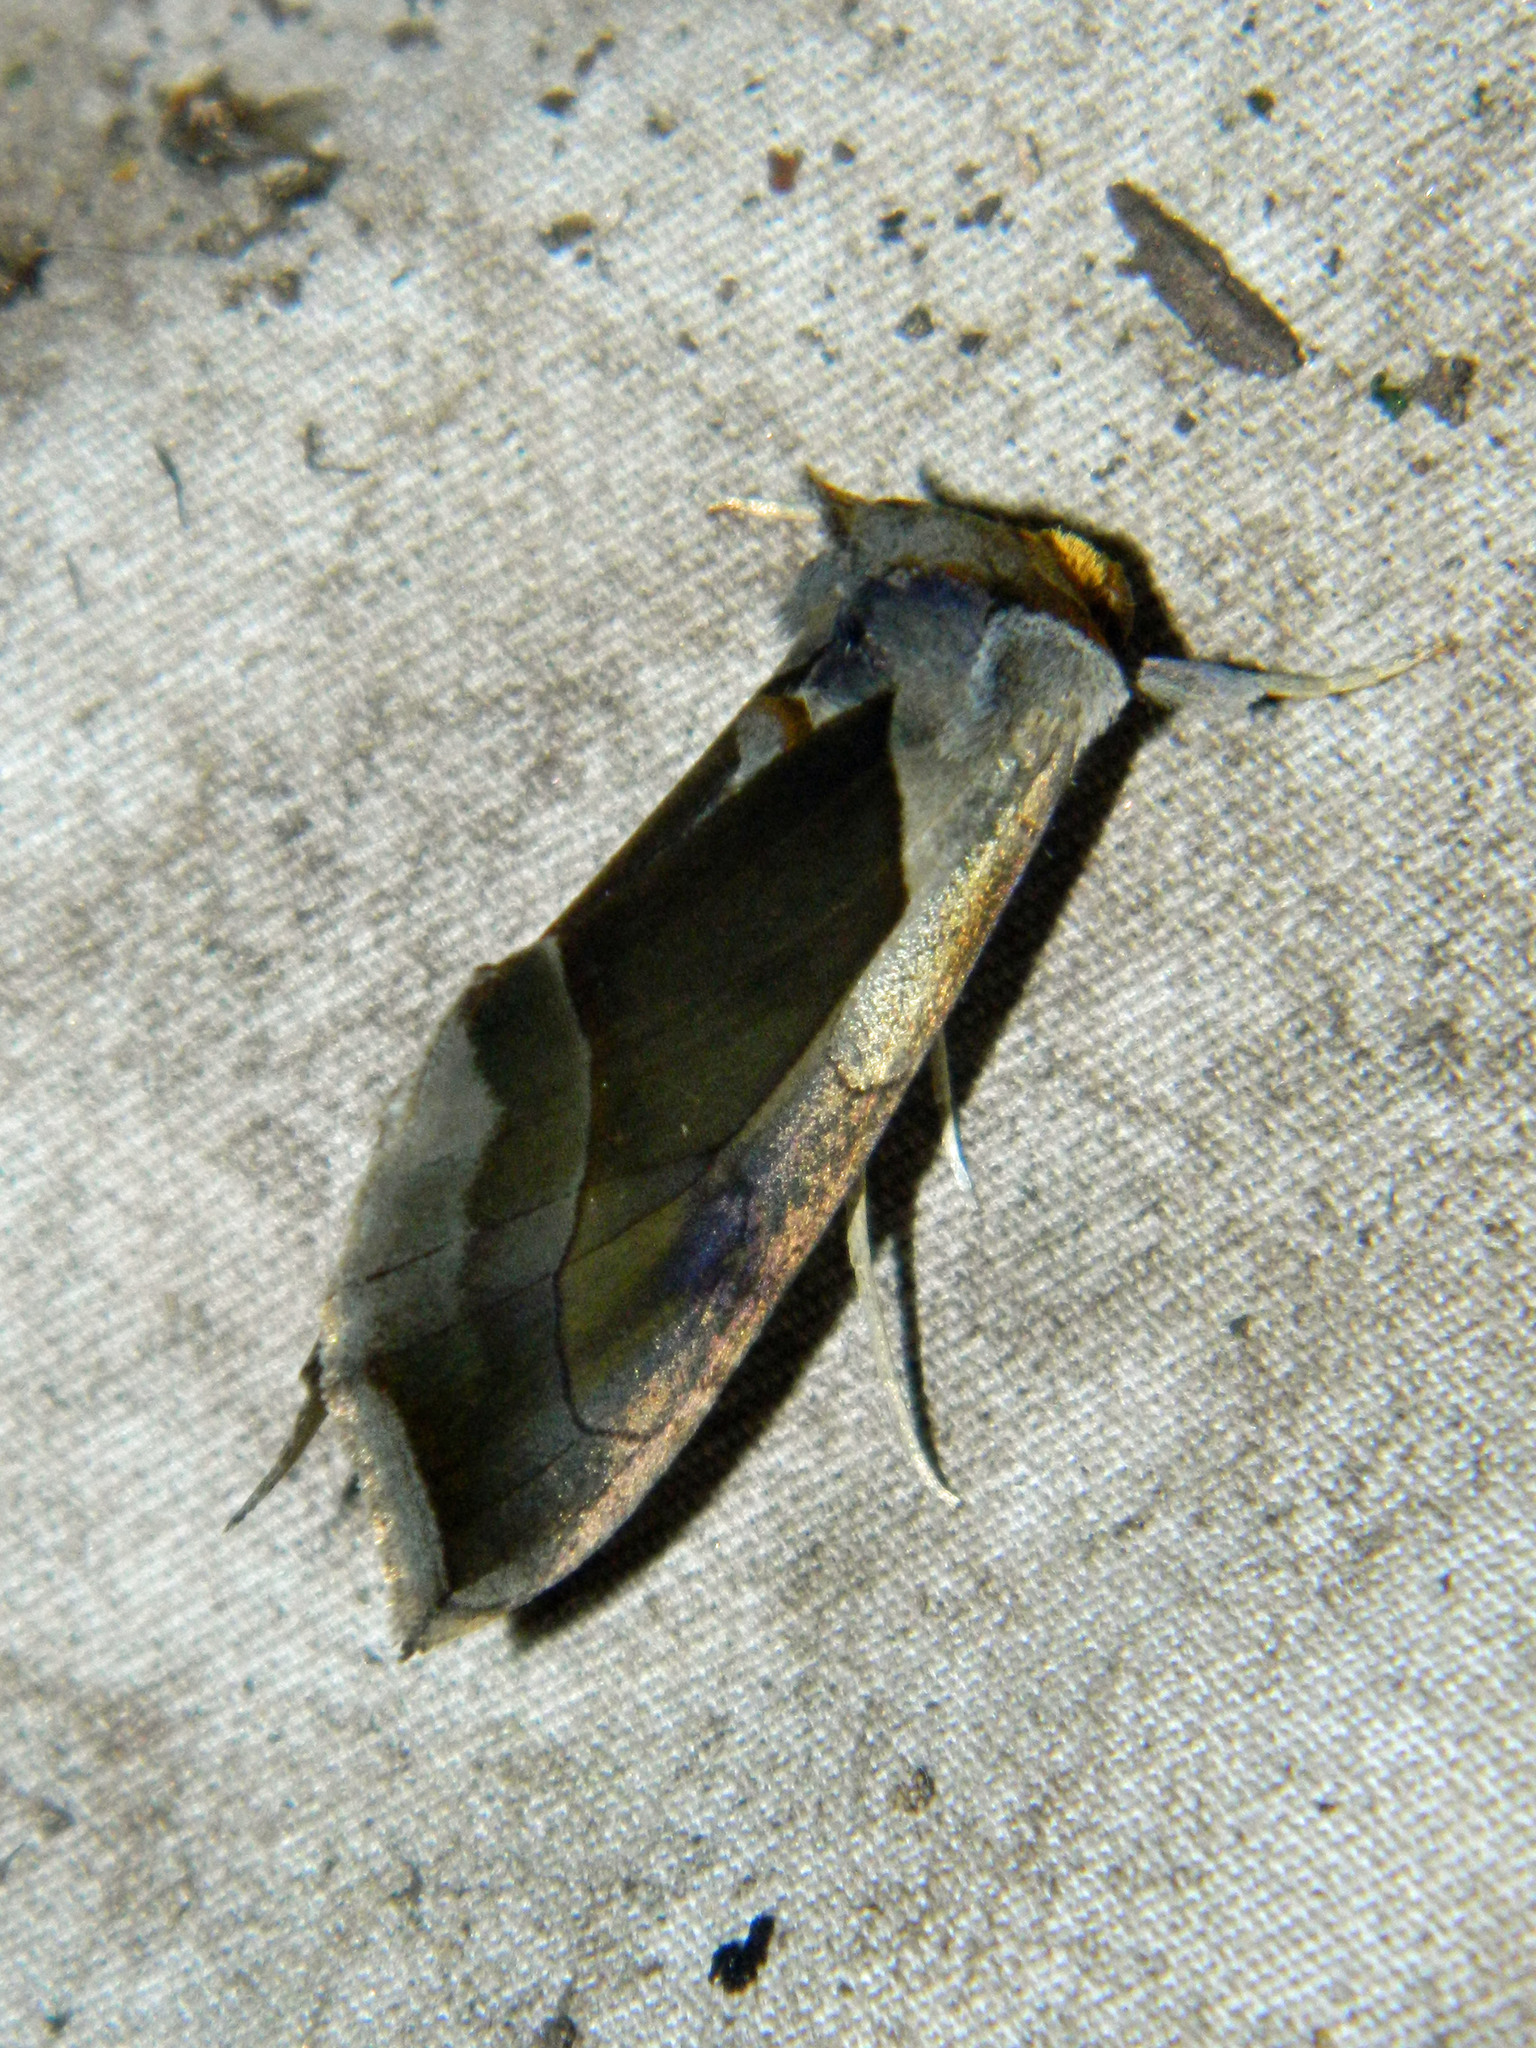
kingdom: Animalia
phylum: Arthropoda
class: Insecta
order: Lepidoptera
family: Noctuidae
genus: Diachrysia
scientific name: Diachrysia balluca
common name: Green-patched looper moth
